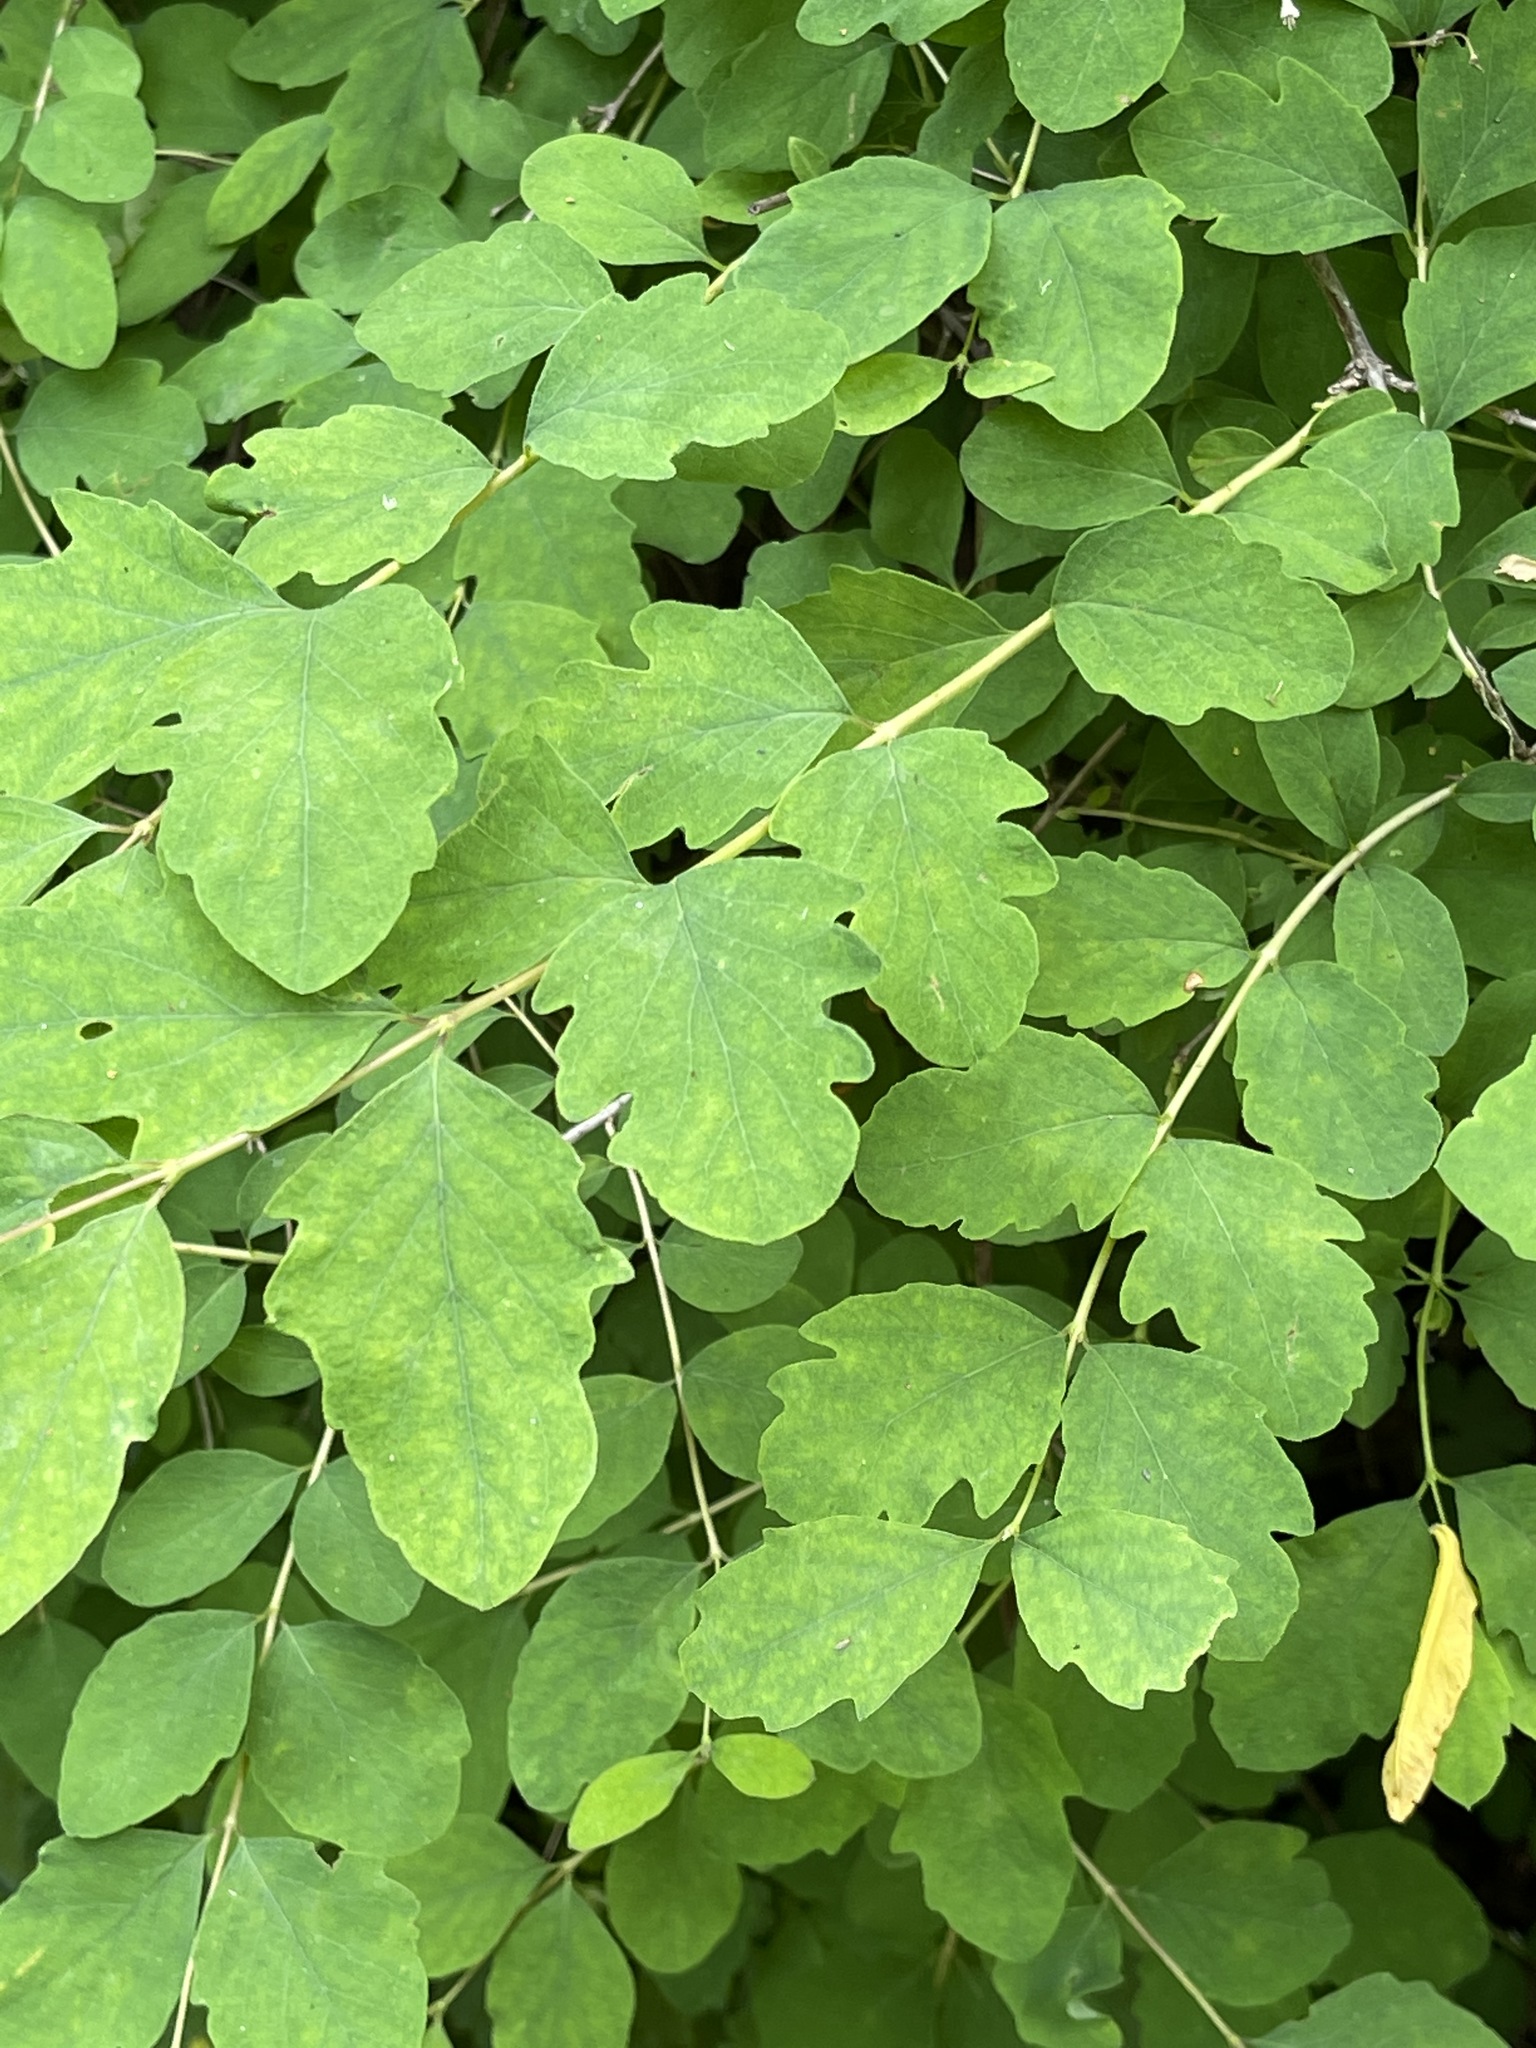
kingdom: Plantae
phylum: Tracheophyta
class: Magnoliopsida
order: Dipsacales
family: Caprifoliaceae
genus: Symphoricarpos
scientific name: Symphoricarpos albus
